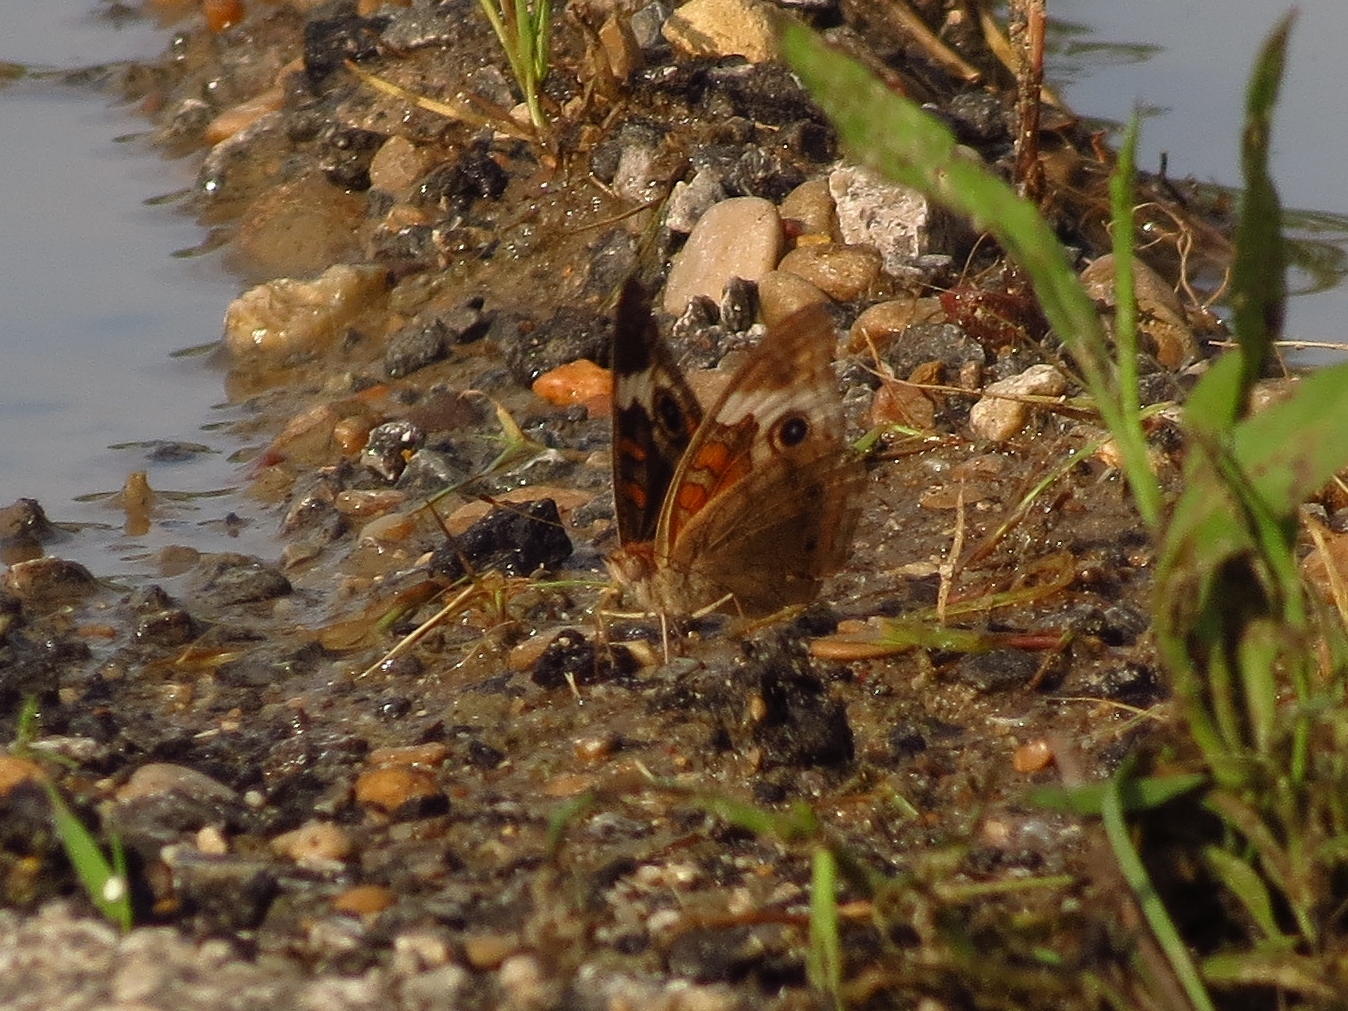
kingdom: Animalia
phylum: Arthropoda
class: Insecta
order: Lepidoptera
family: Nymphalidae
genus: Junonia
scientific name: Junonia coenia
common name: Common buckeye
